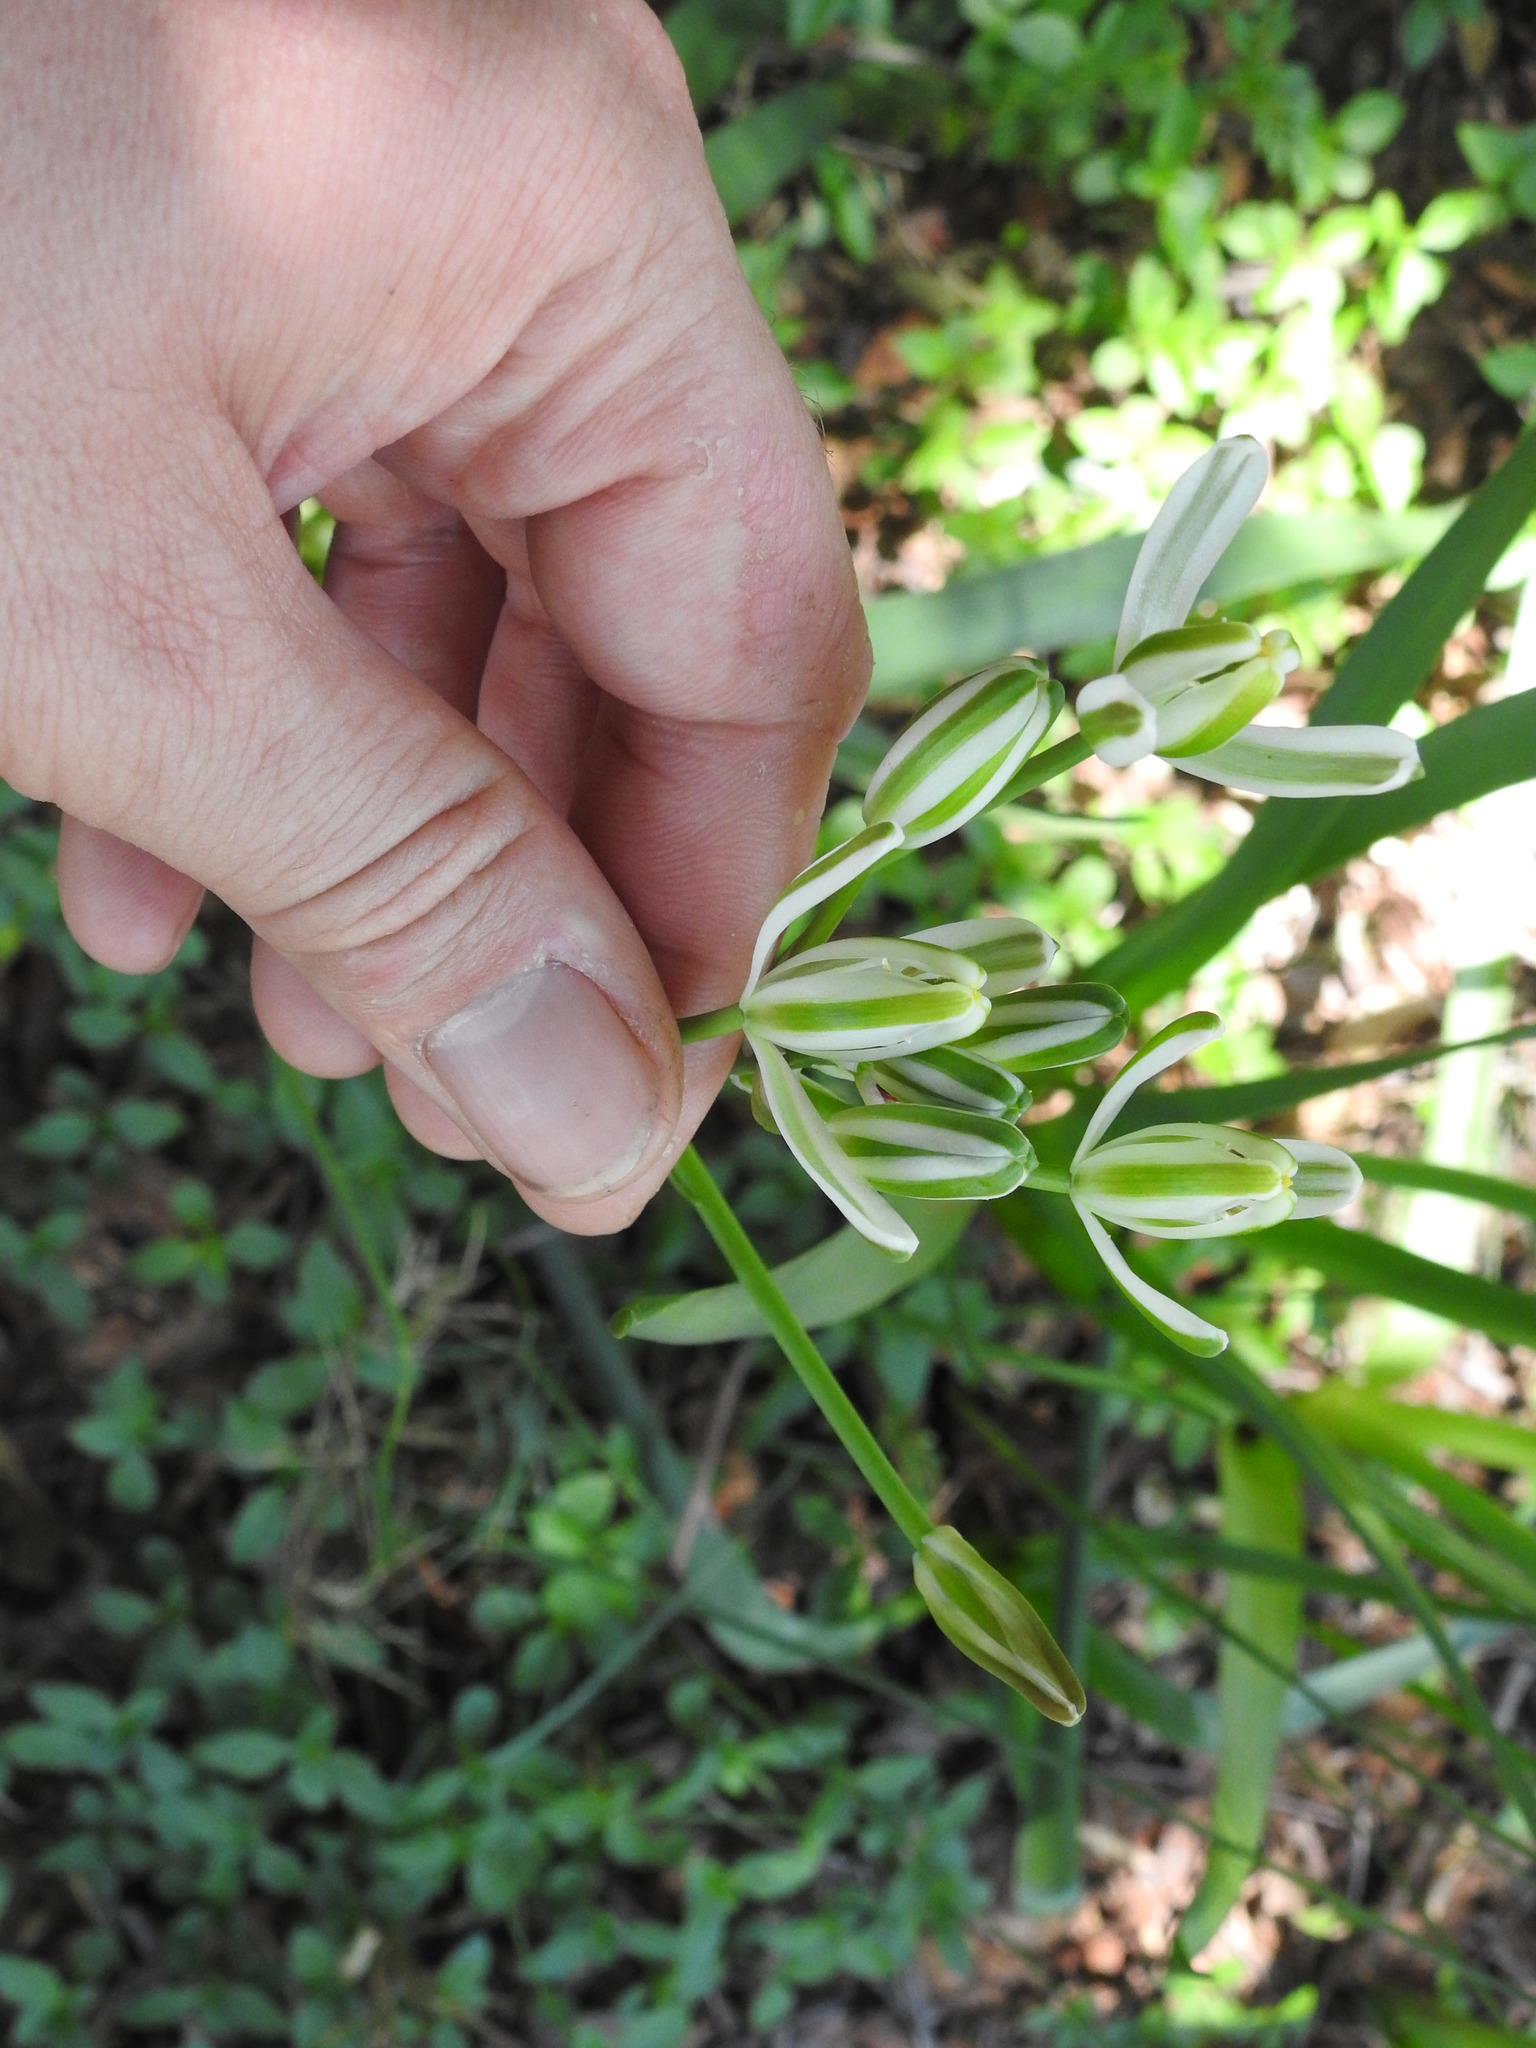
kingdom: Plantae
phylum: Tracheophyta
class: Liliopsida
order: Asparagales
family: Asparagaceae
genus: Albuca
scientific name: Albuca setosa
